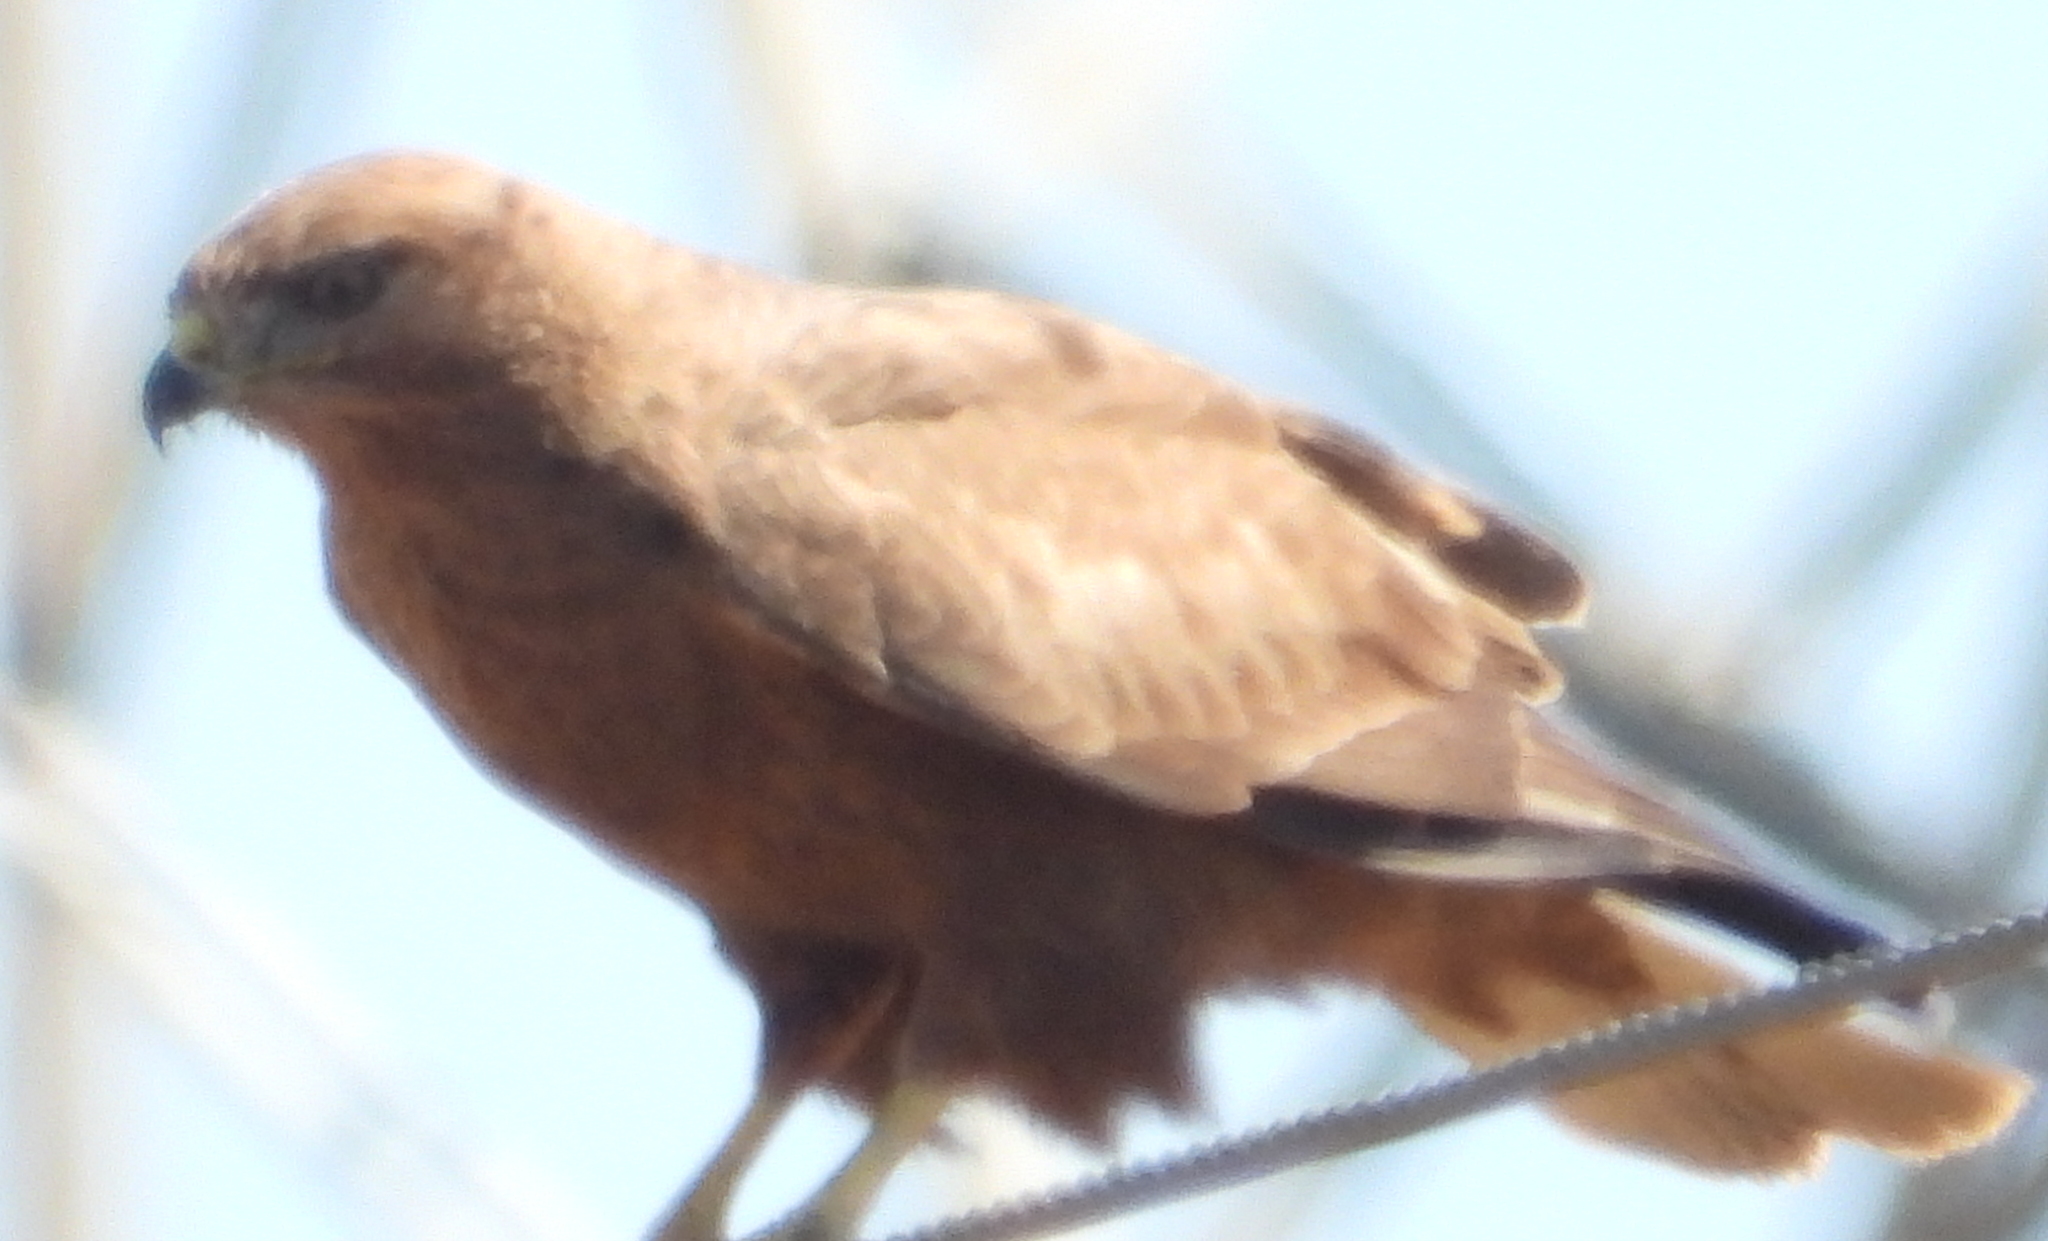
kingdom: Animalia
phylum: Chordata
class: Aves
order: Accipitriformes
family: Accipitridae
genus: Buteo
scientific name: Buteo buteo
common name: Common buzzard
